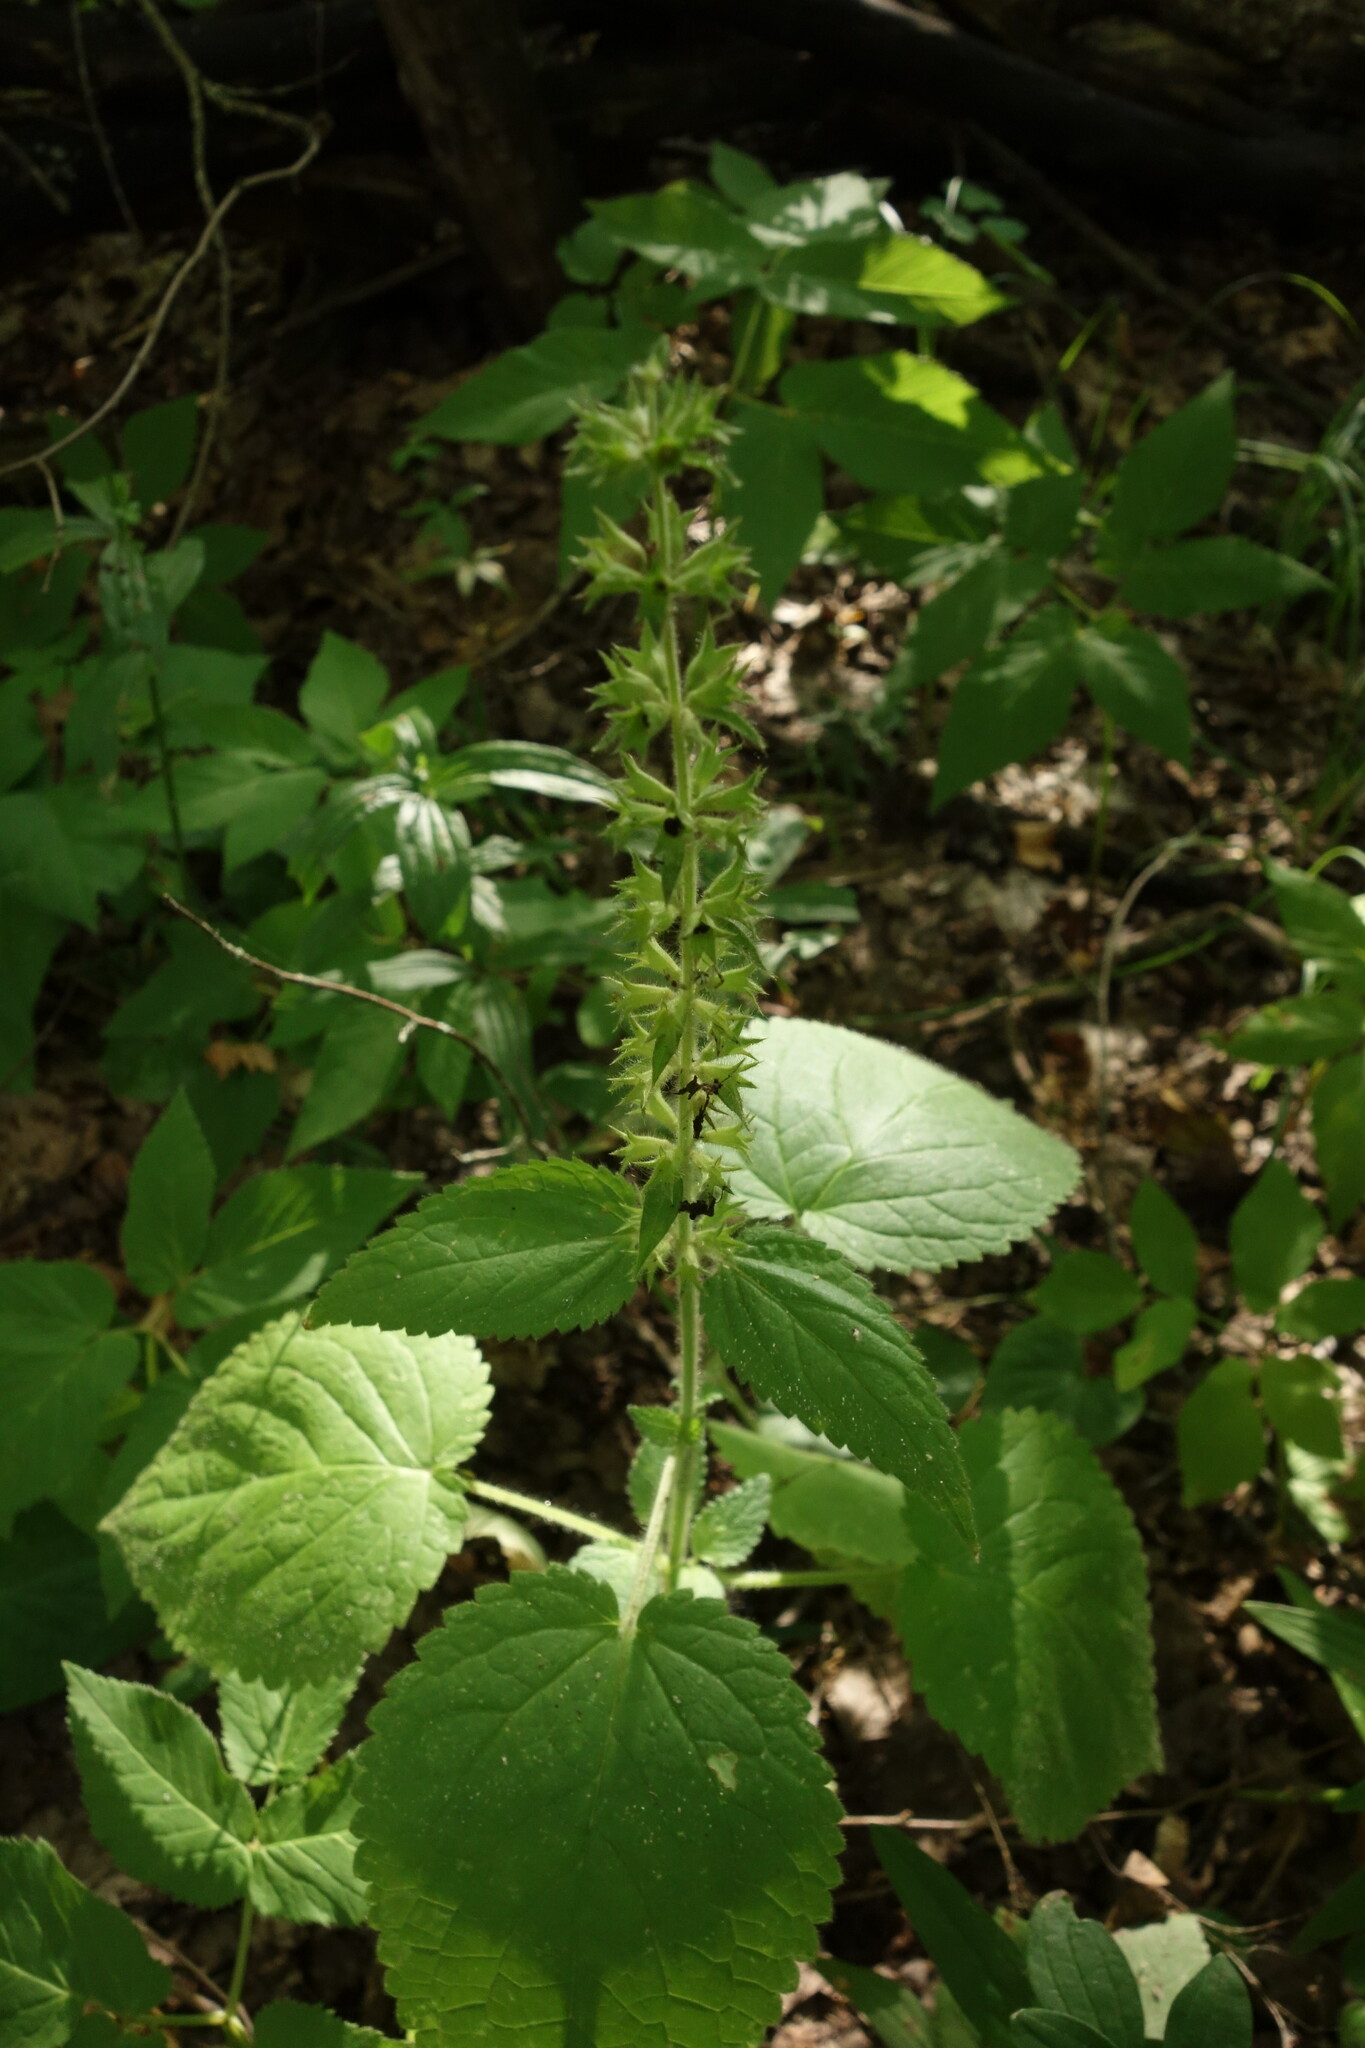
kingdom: Plantae
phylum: Tracheophyta
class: Magnoliopsida
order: Lamiales
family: Lamiaceae
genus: Stachys
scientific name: Stachys sylvatica
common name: Hedge woundwort
